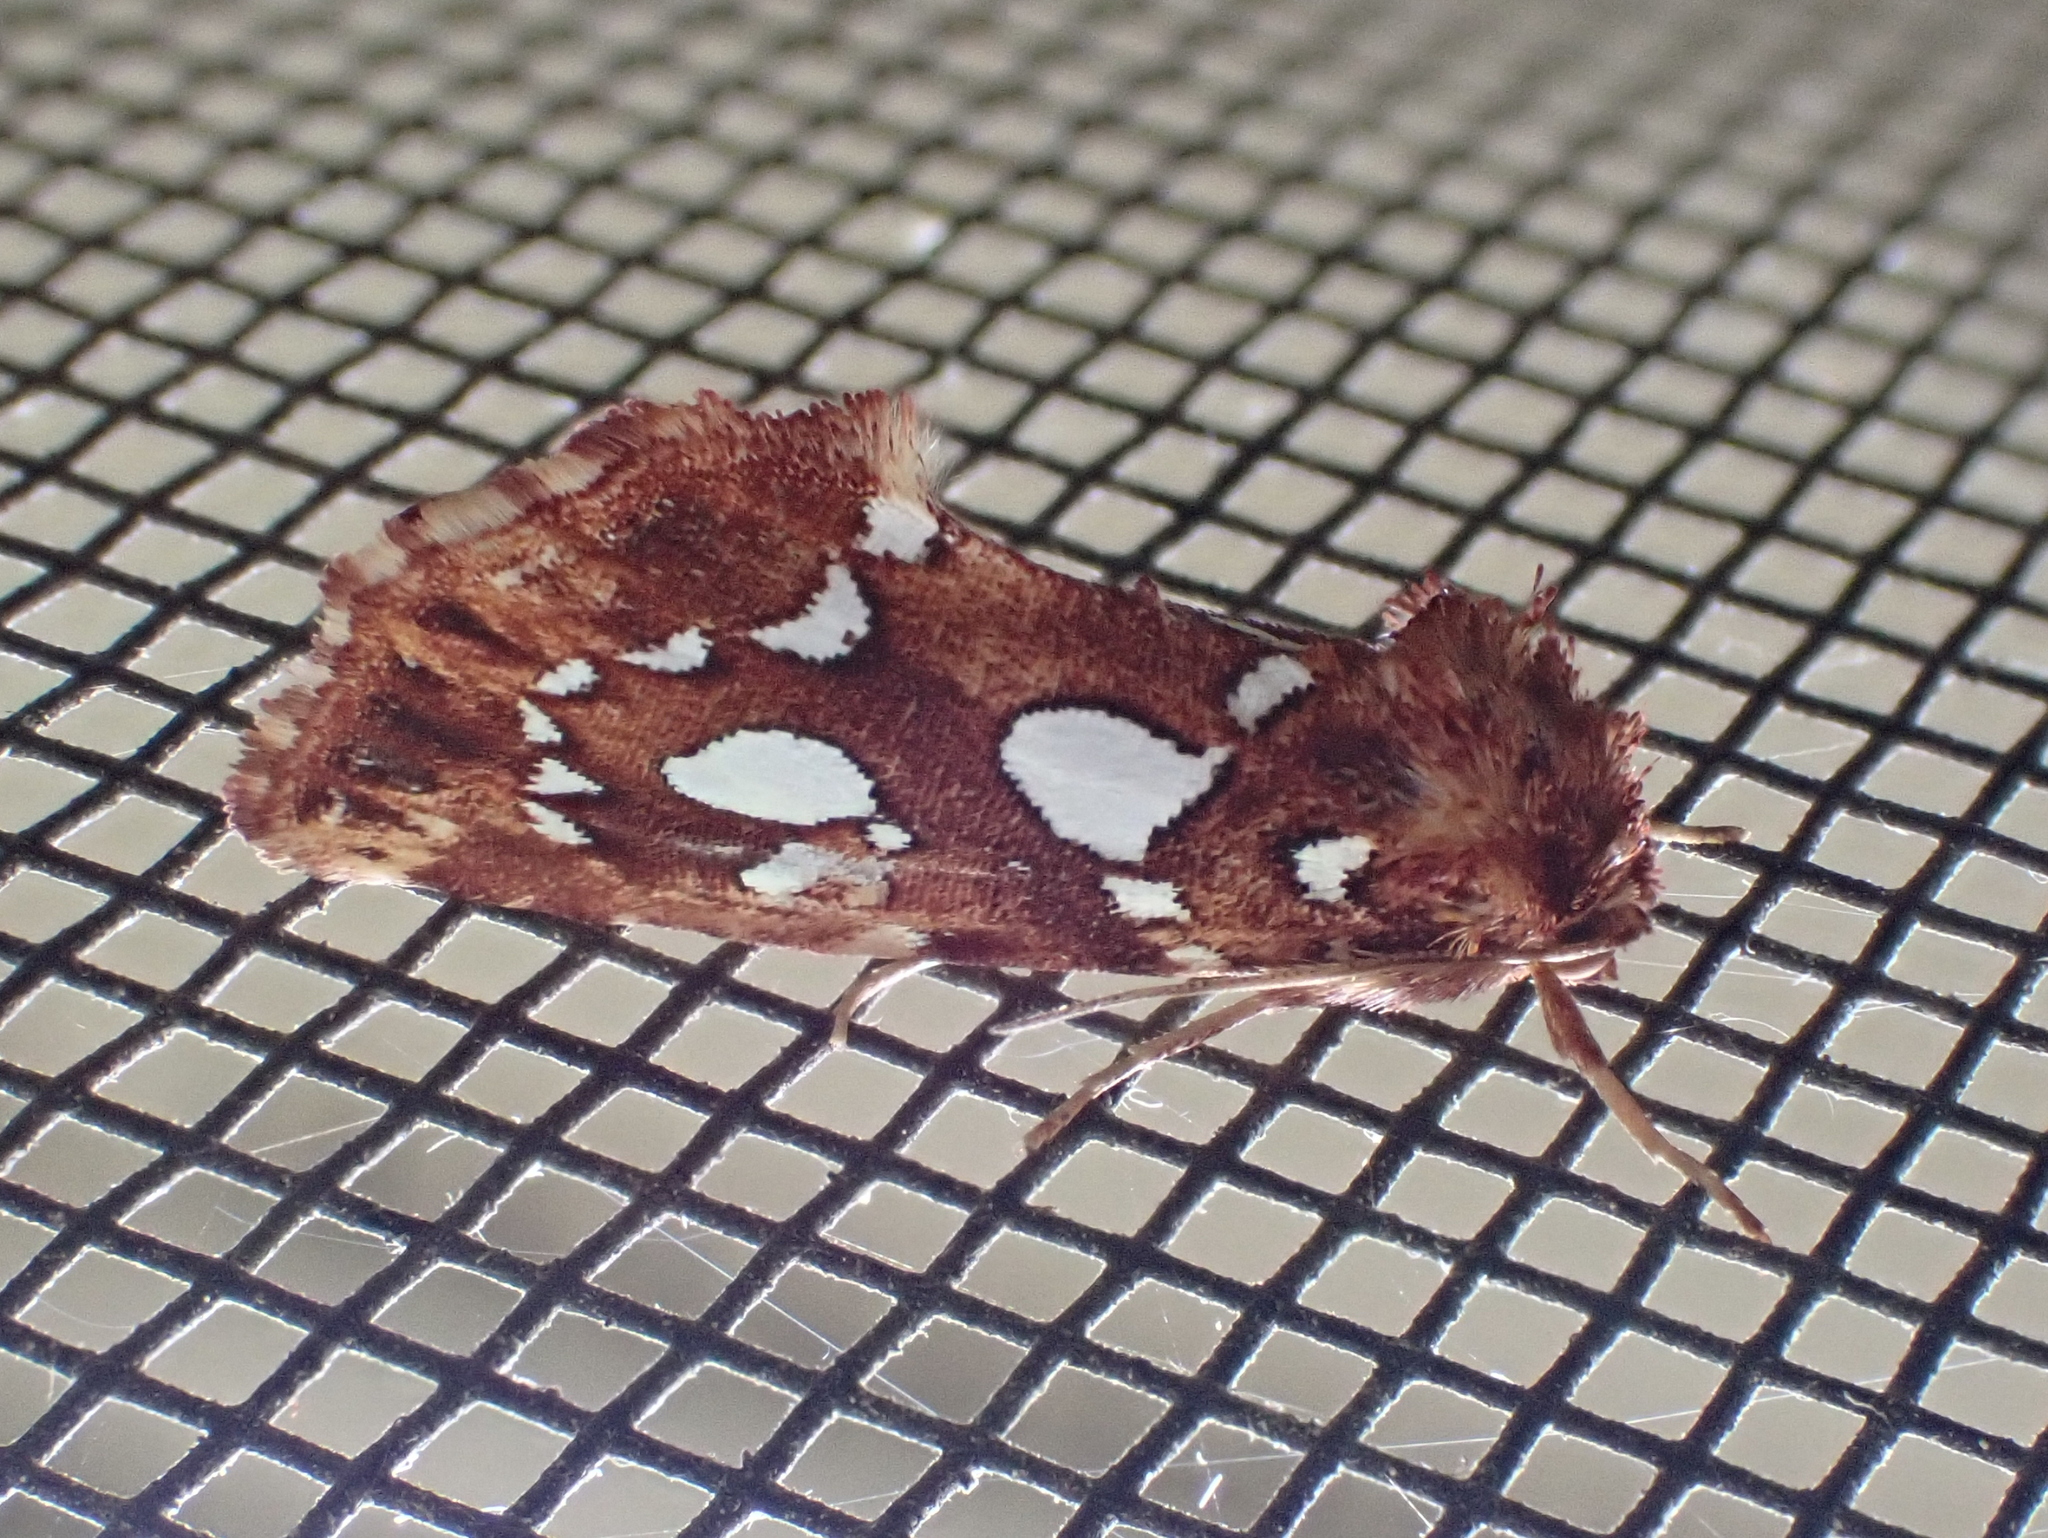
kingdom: Animalia
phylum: Arthropoda
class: Insecta
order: Lepidoptera
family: Noctuidae
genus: Callopistria
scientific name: Callopistria cordata
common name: Silver-spotted fern moth
